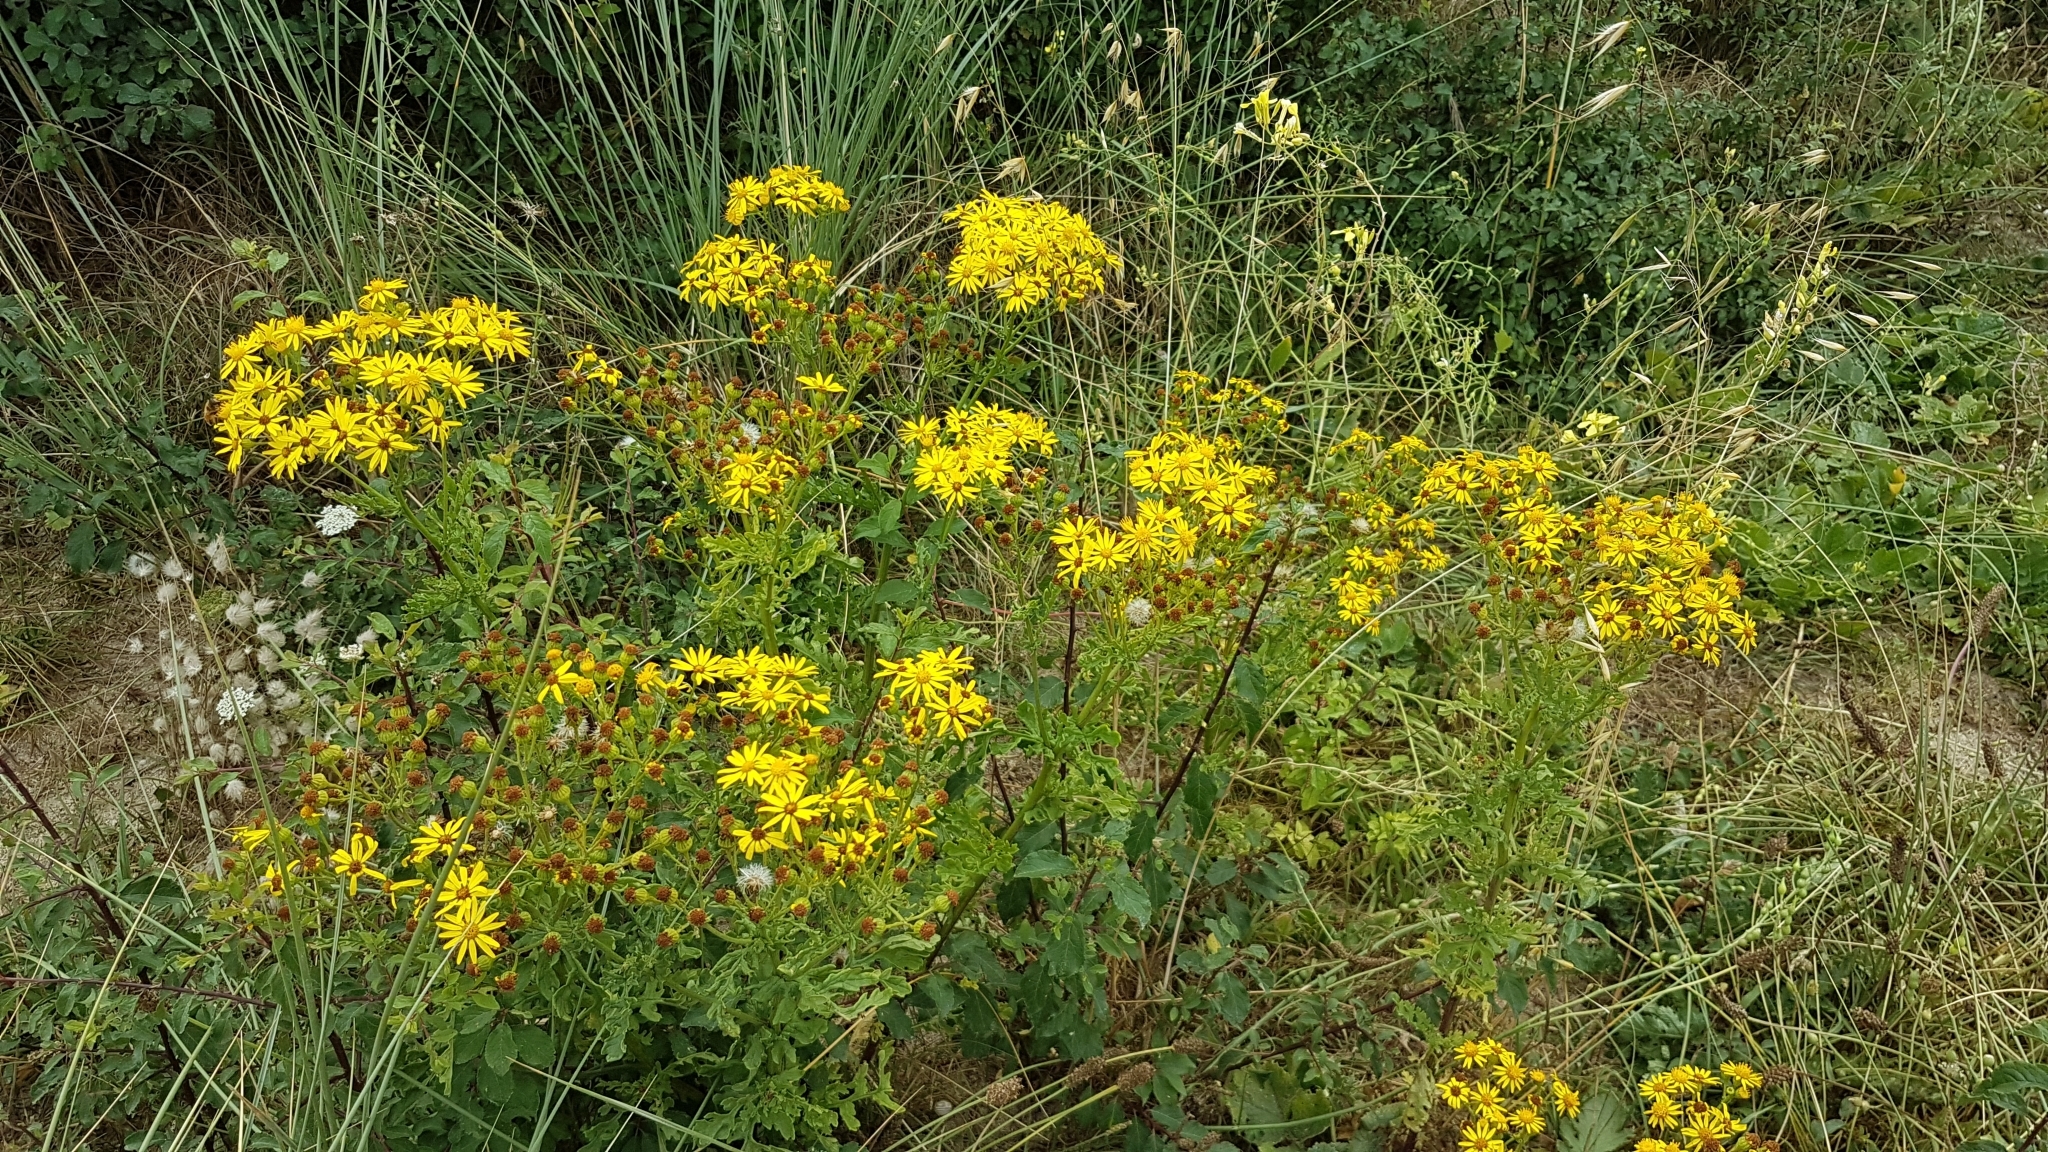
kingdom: Plantae
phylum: Tracheophyta
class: Magnoliopsida
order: Asterales
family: Asteraceae
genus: Jacobaea
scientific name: Jacobaea vulgaris
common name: Stinking willie
